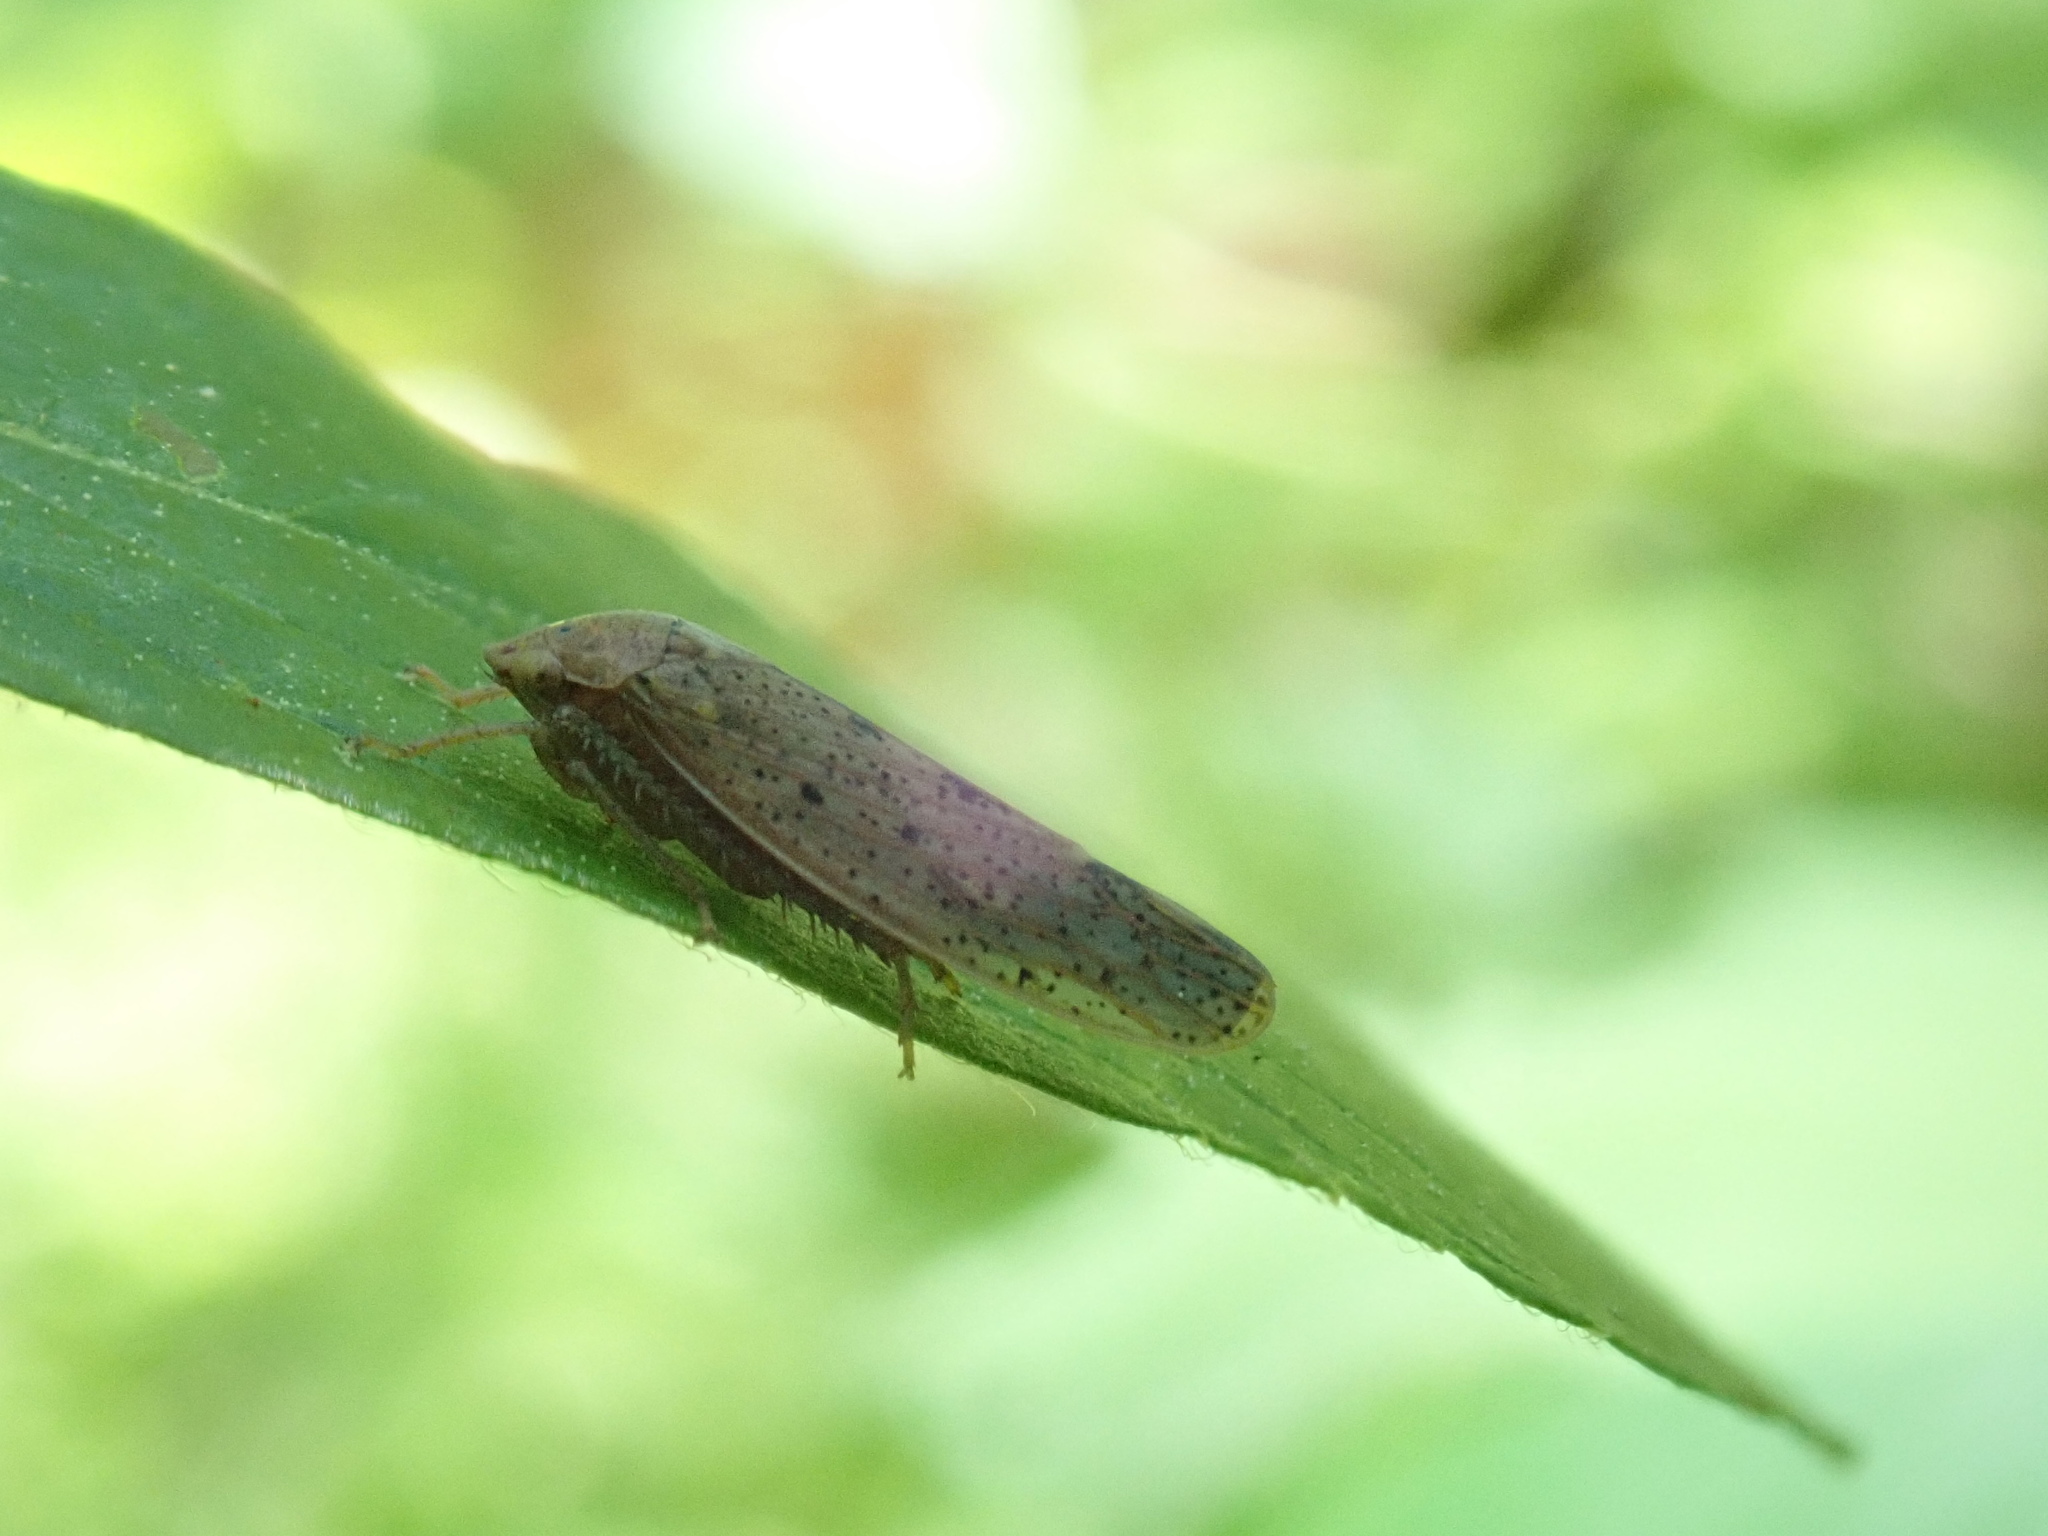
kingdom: Animalia
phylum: Arthropoda
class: Insecta
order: Hemiptera
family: Cicadellidae
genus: Ponana
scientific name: Ponana puncticollis
